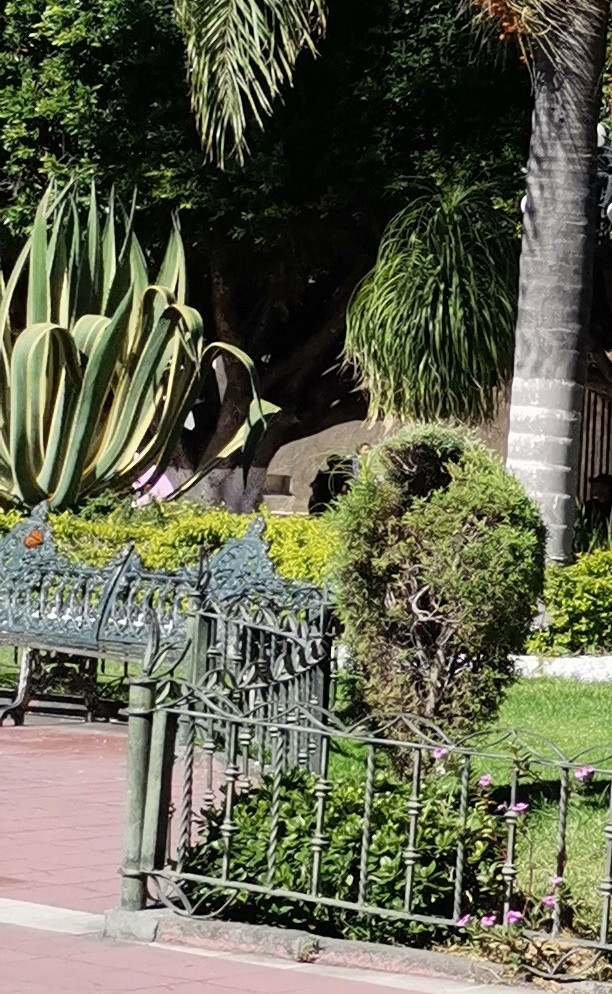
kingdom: Animalia
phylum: Arthropoda
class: Insecta
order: Lepidoptera
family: Nymphalidae
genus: Danaus
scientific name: Danaus plexippus
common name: Monarch
